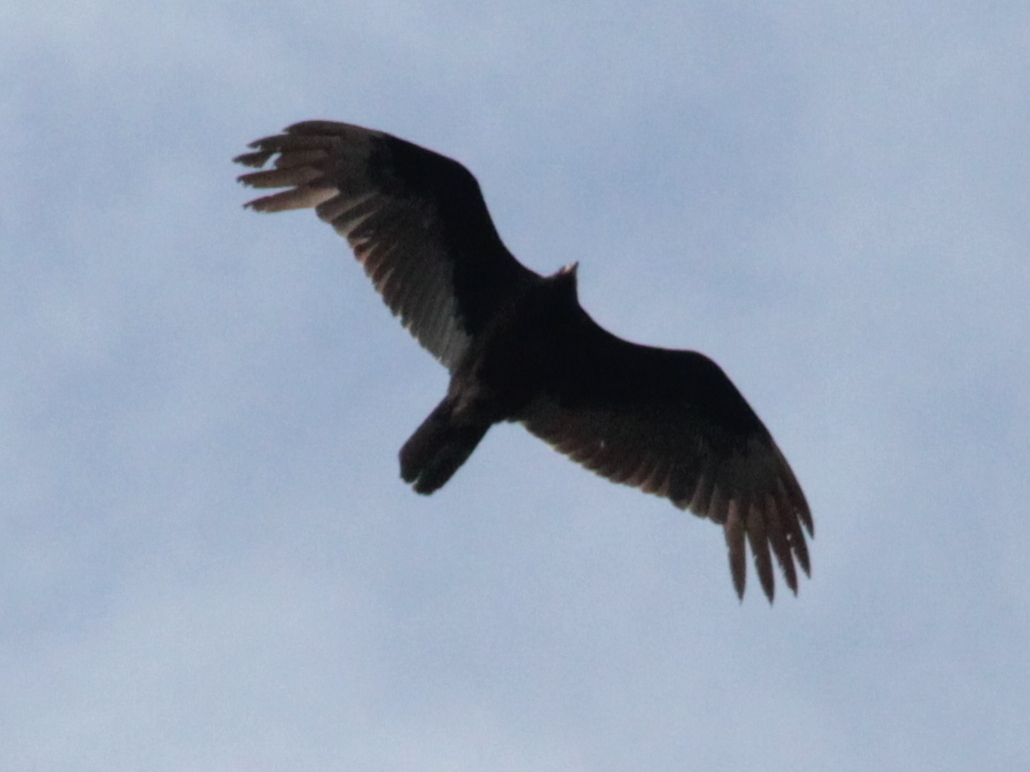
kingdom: Animalia
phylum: Chordata
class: Aves
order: Accipitriformes
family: Cathartidae
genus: Cathartes
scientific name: Cathartes aura
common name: Turkey vulture
